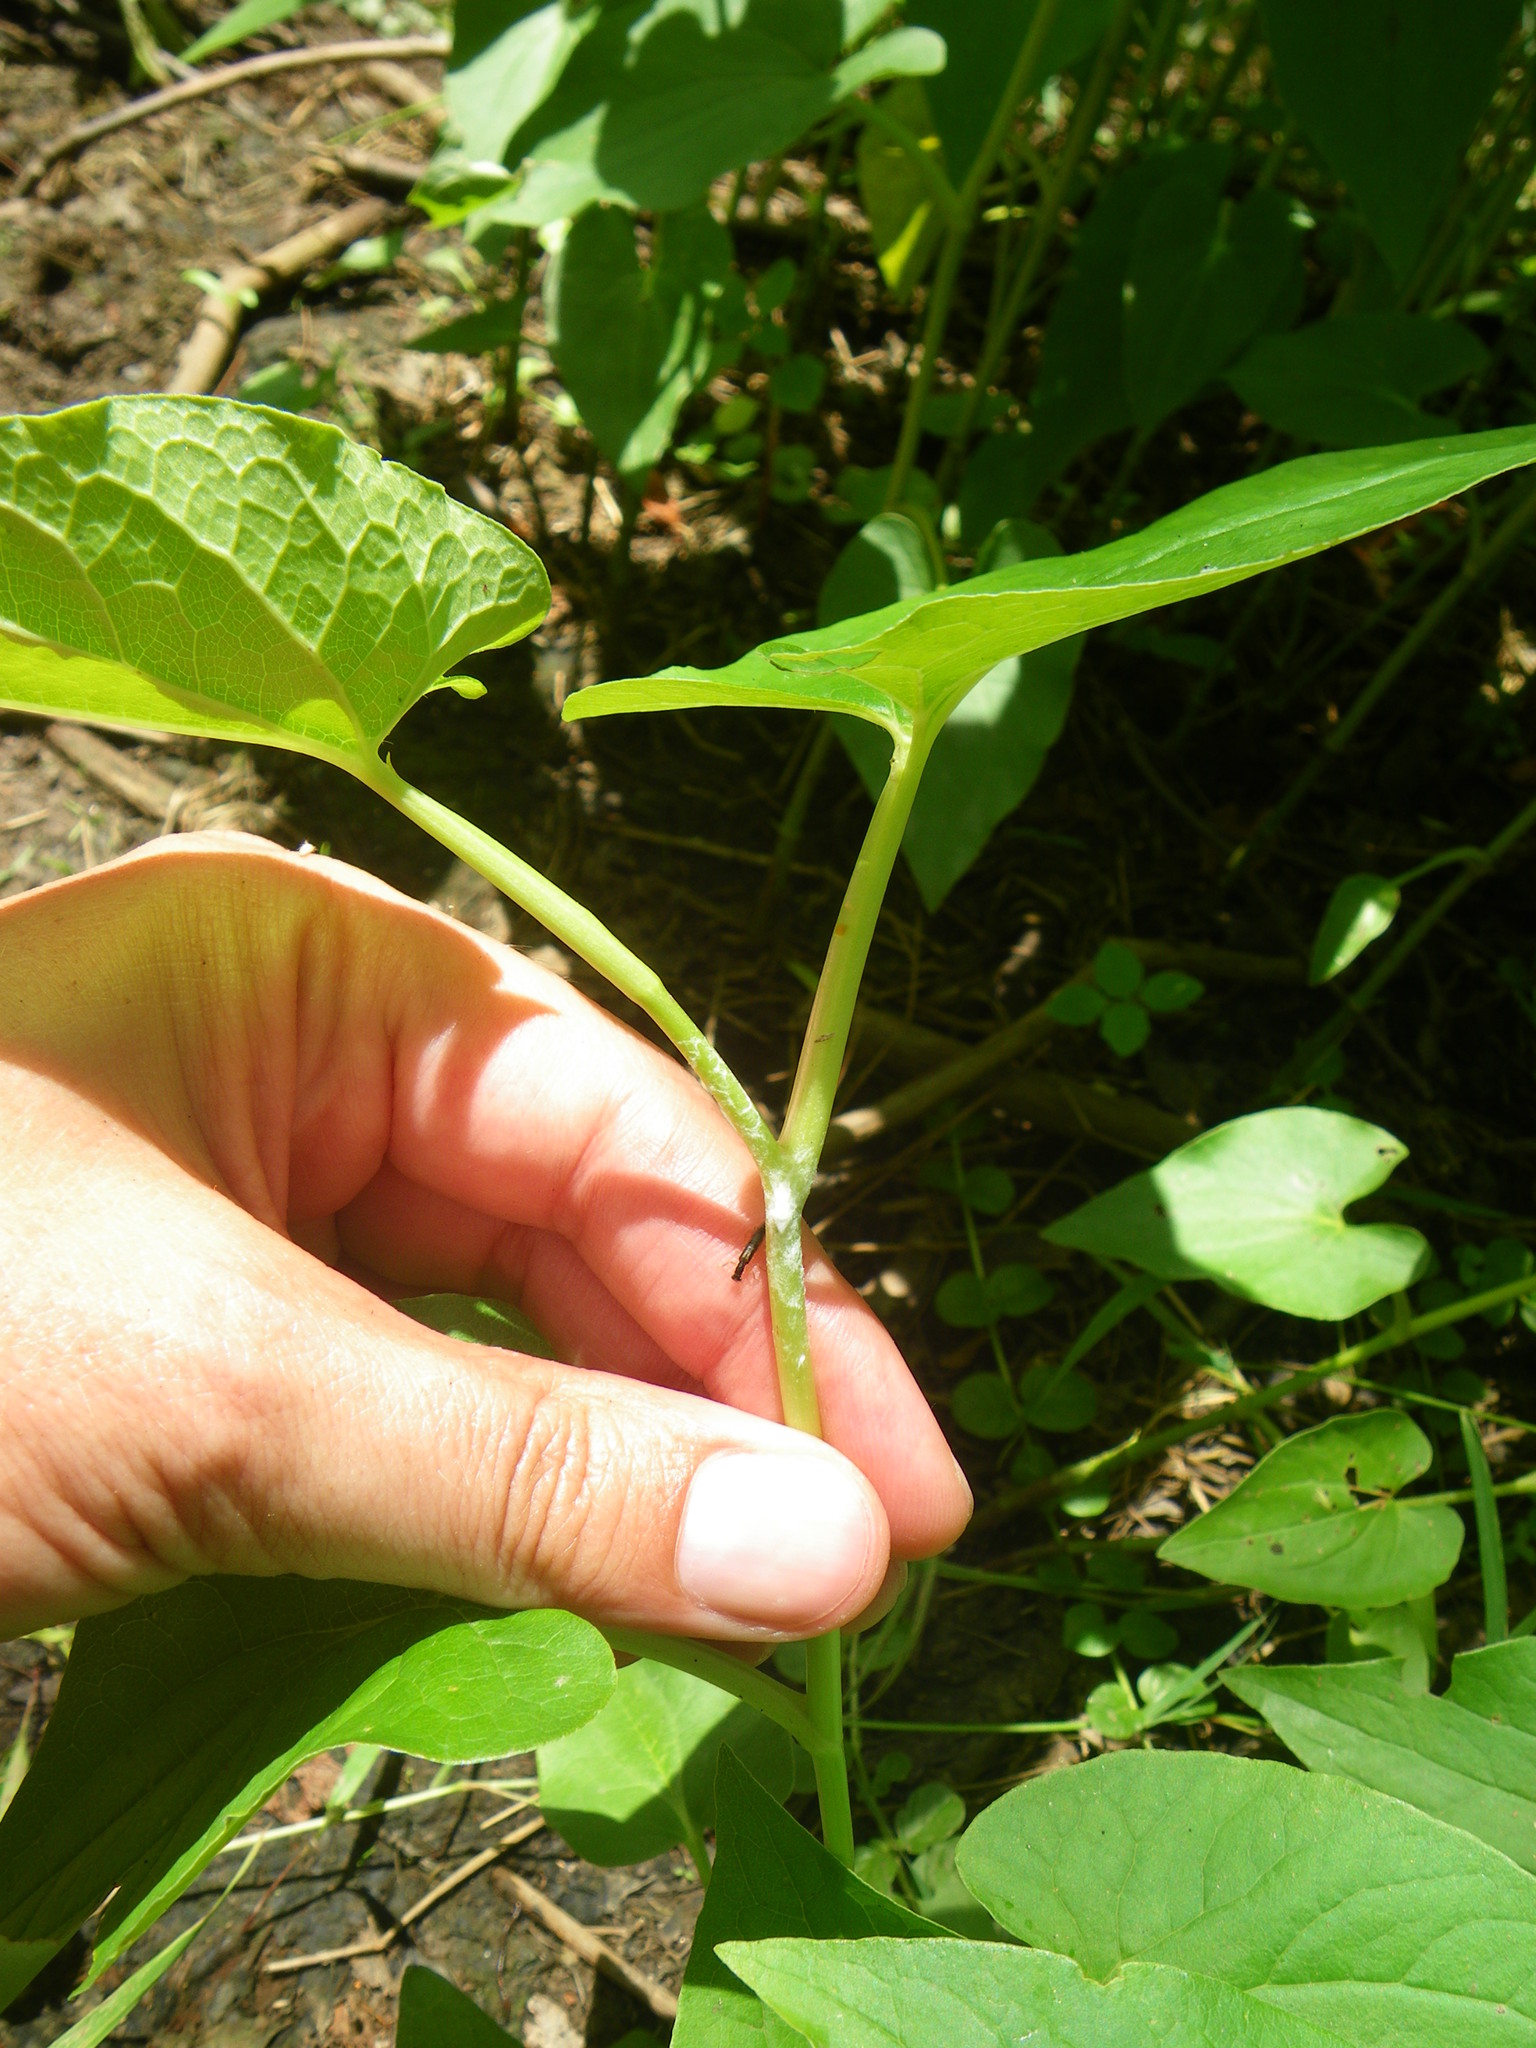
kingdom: Plantae
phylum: Tracheophyta
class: Magnoliopsida
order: Piperales
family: Saururaceae
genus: Saururus
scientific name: Saururus cernuus
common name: Lizard's-tail
